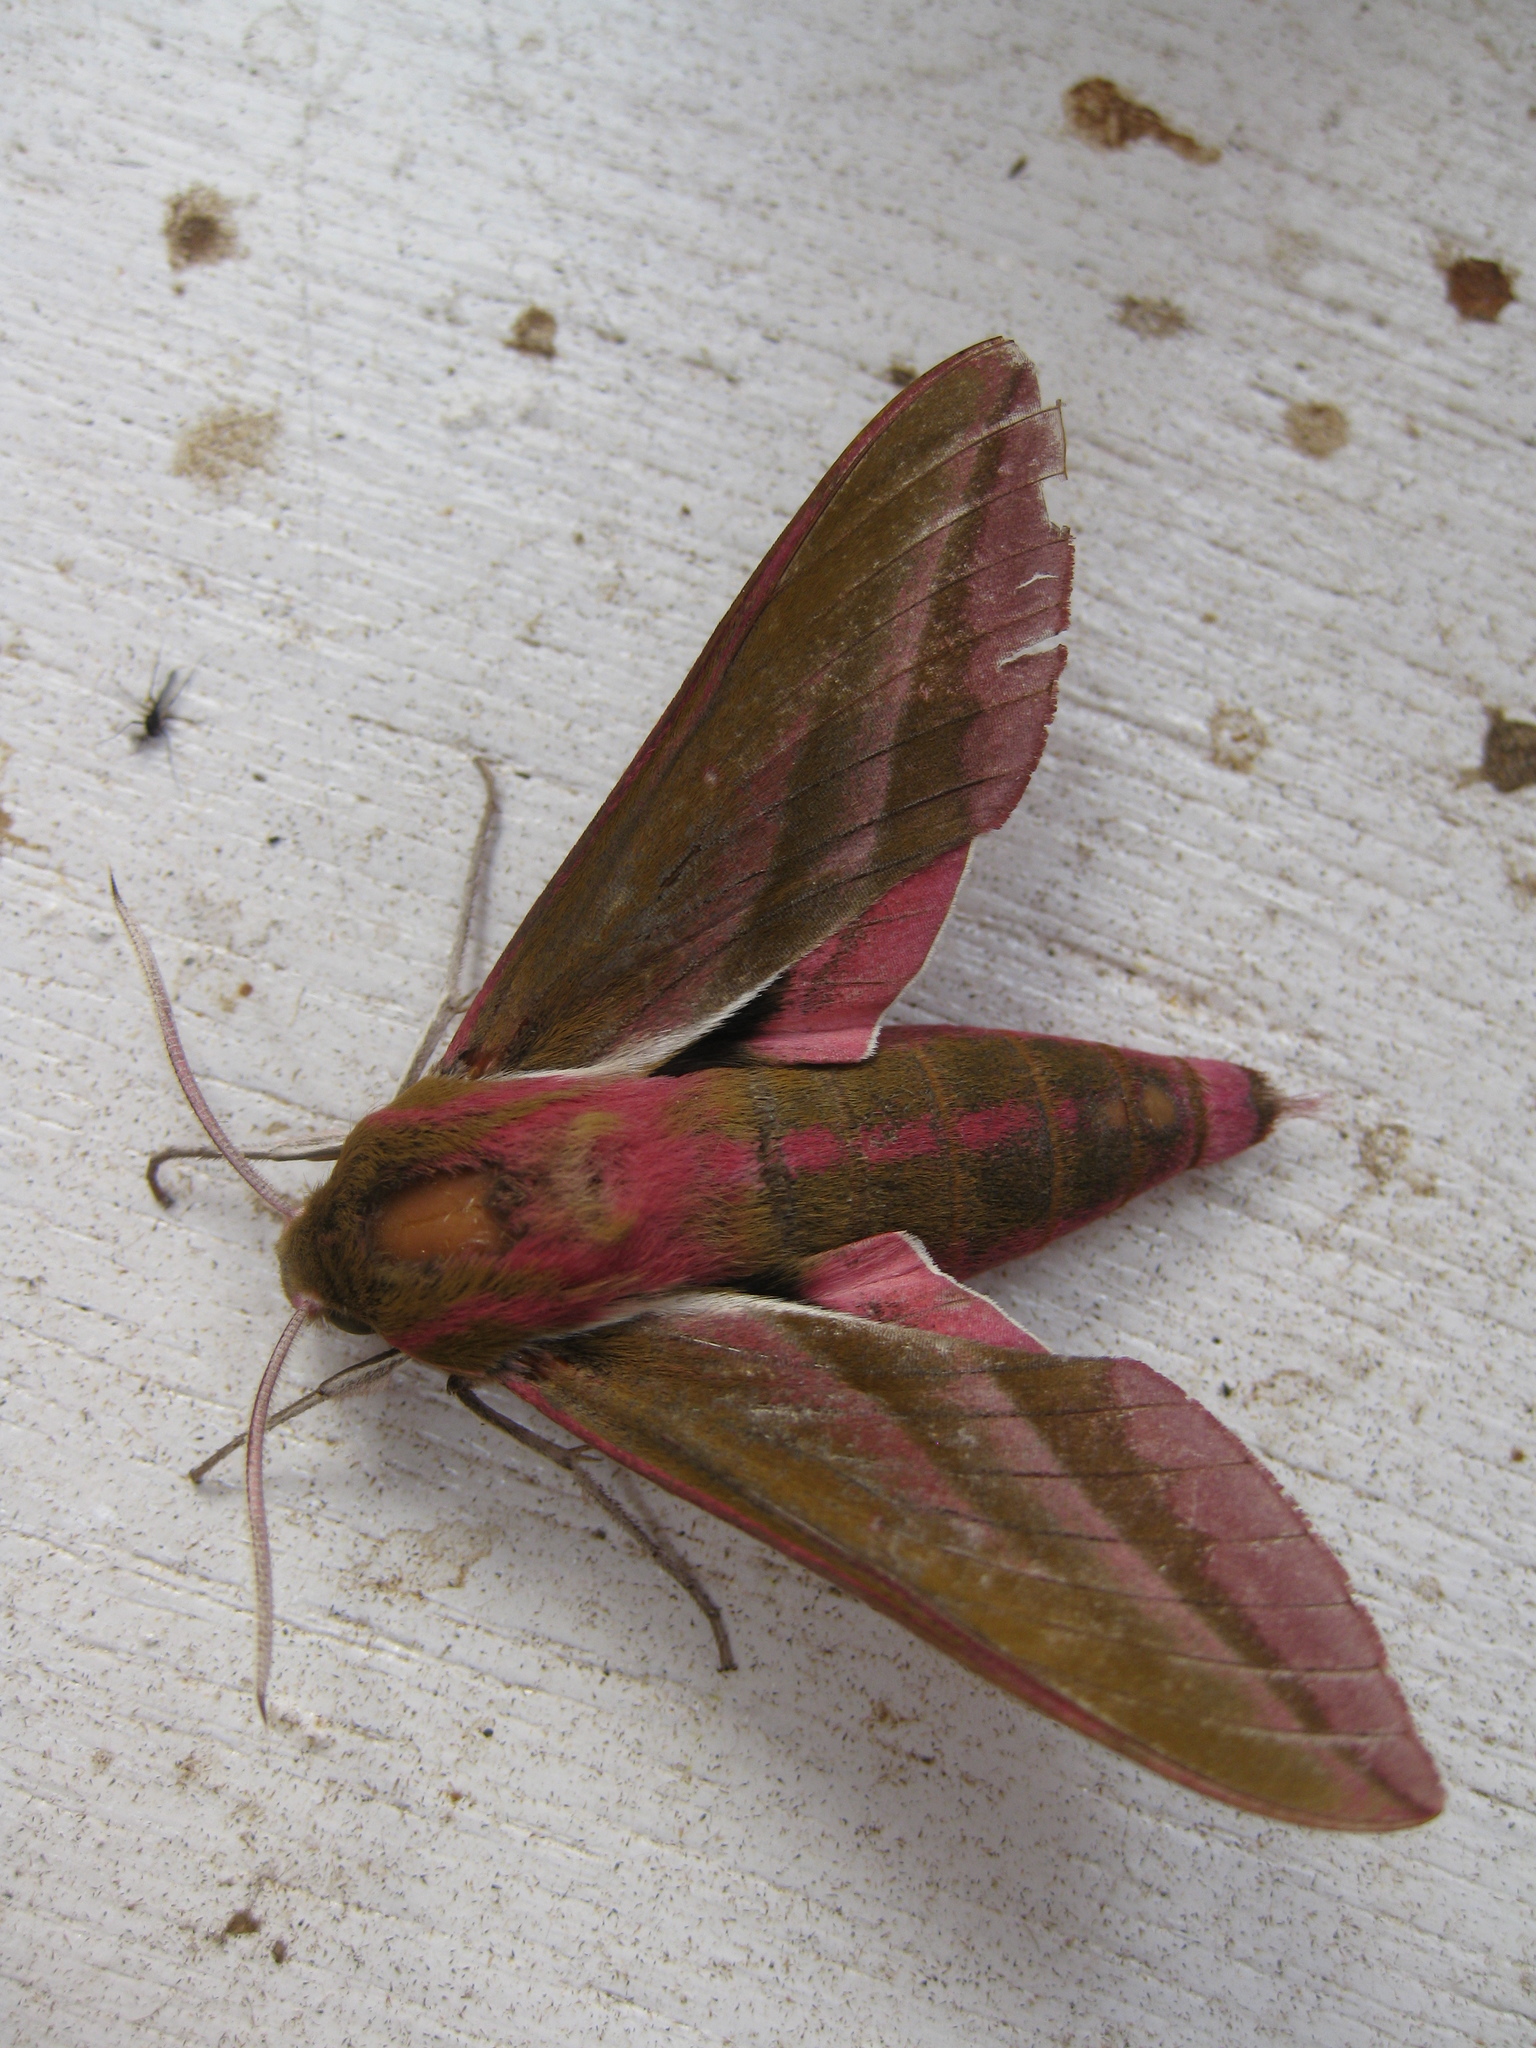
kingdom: Animalia
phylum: Arthropoda
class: Insecta
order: Lepidoptera
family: Sphingidae
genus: Deilephila
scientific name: Deilephila elpenor
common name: Elephant hawk-moth
